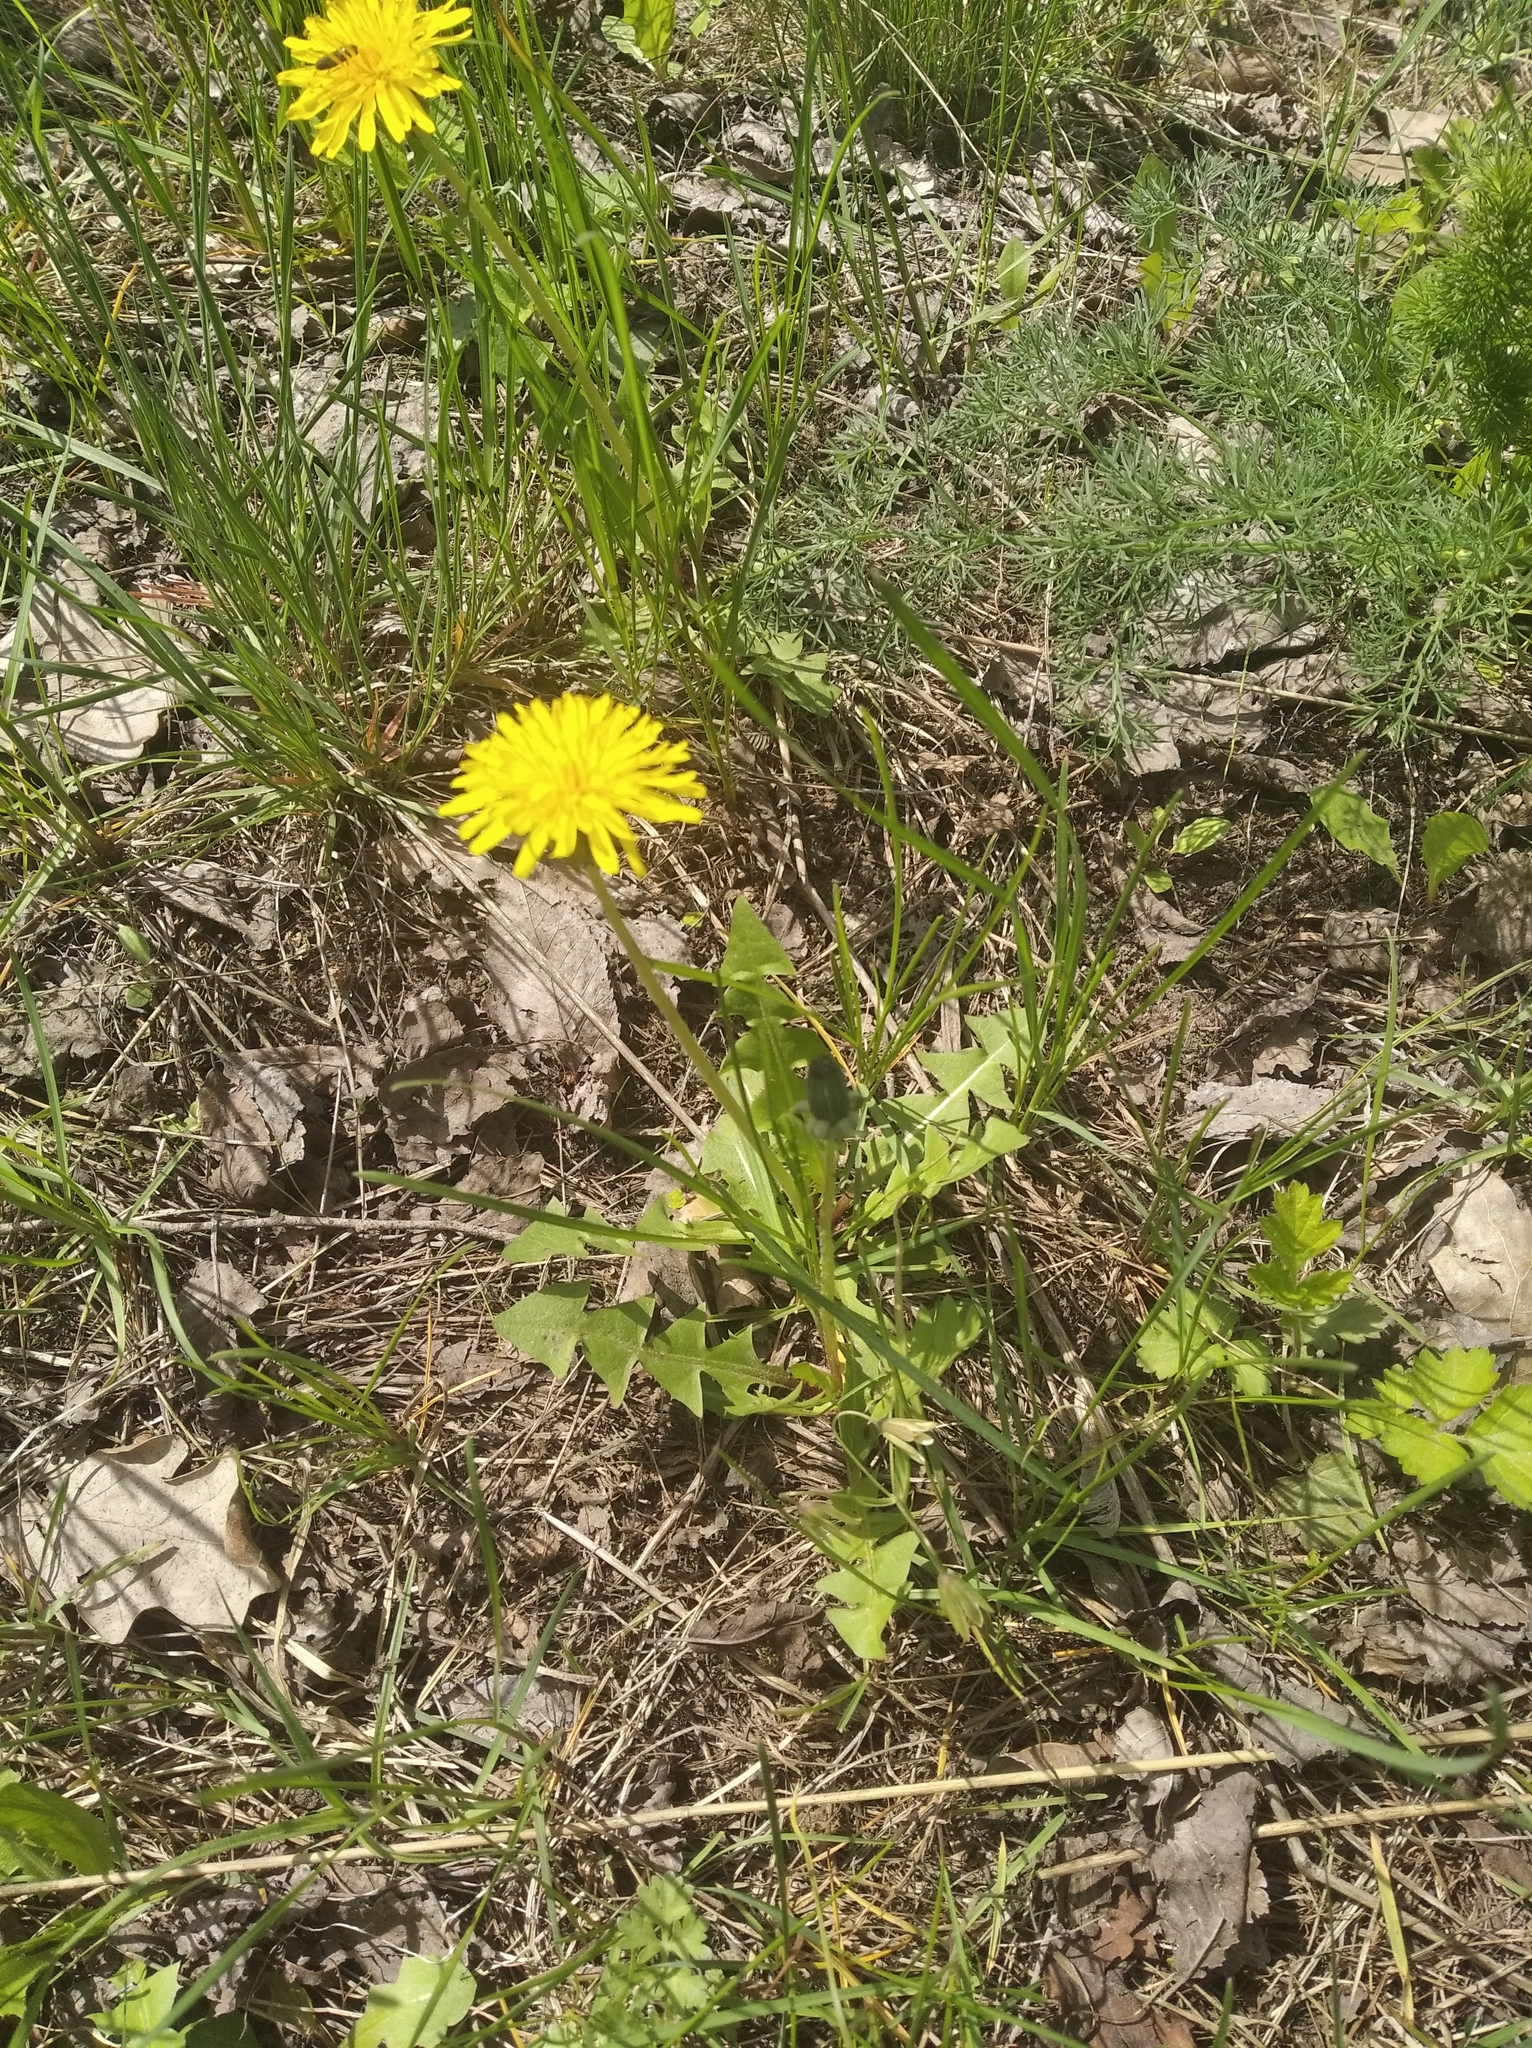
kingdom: Plantae
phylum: Tracheophyta
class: Magnoliopsida
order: Asterales
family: Asteraceae
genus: Taraxacum
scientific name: Taraxacum officinale
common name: Common dandelion
